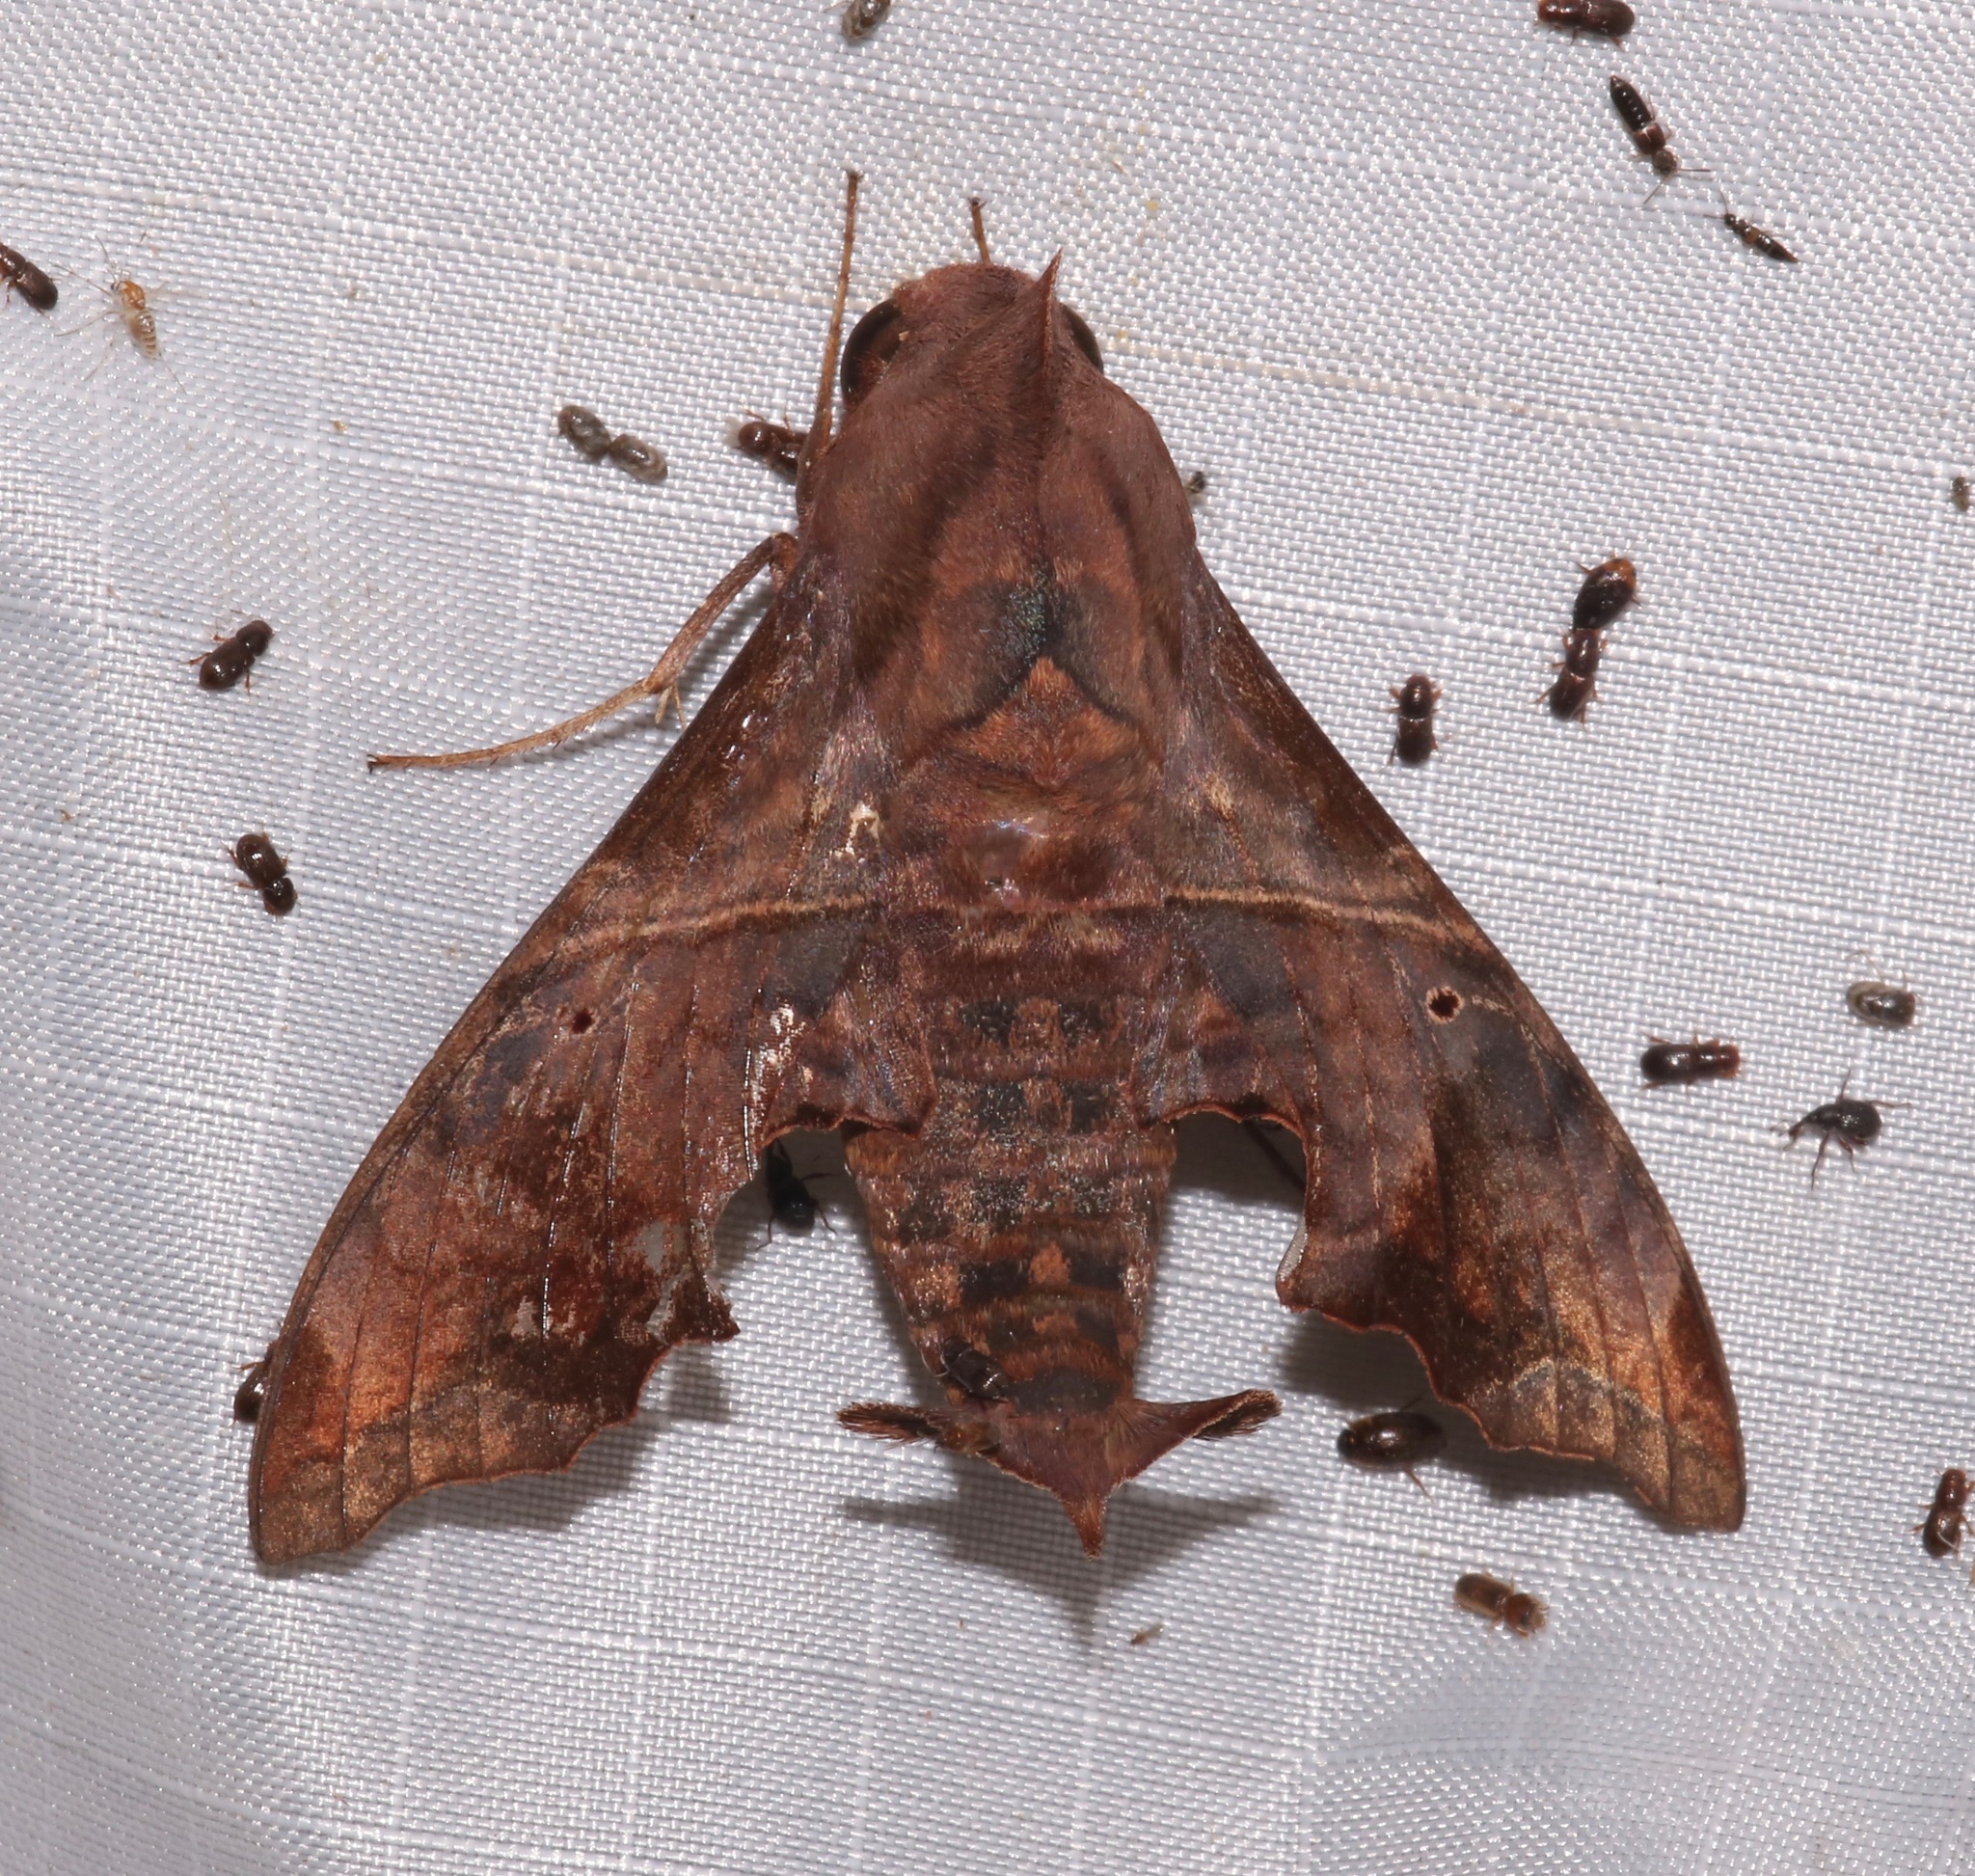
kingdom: Animalia
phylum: Arthropoda
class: Insecta
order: Lepidoptera
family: Sphingidae
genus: Enyo
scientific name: Enyo lugubris
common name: Mournful sphinx
